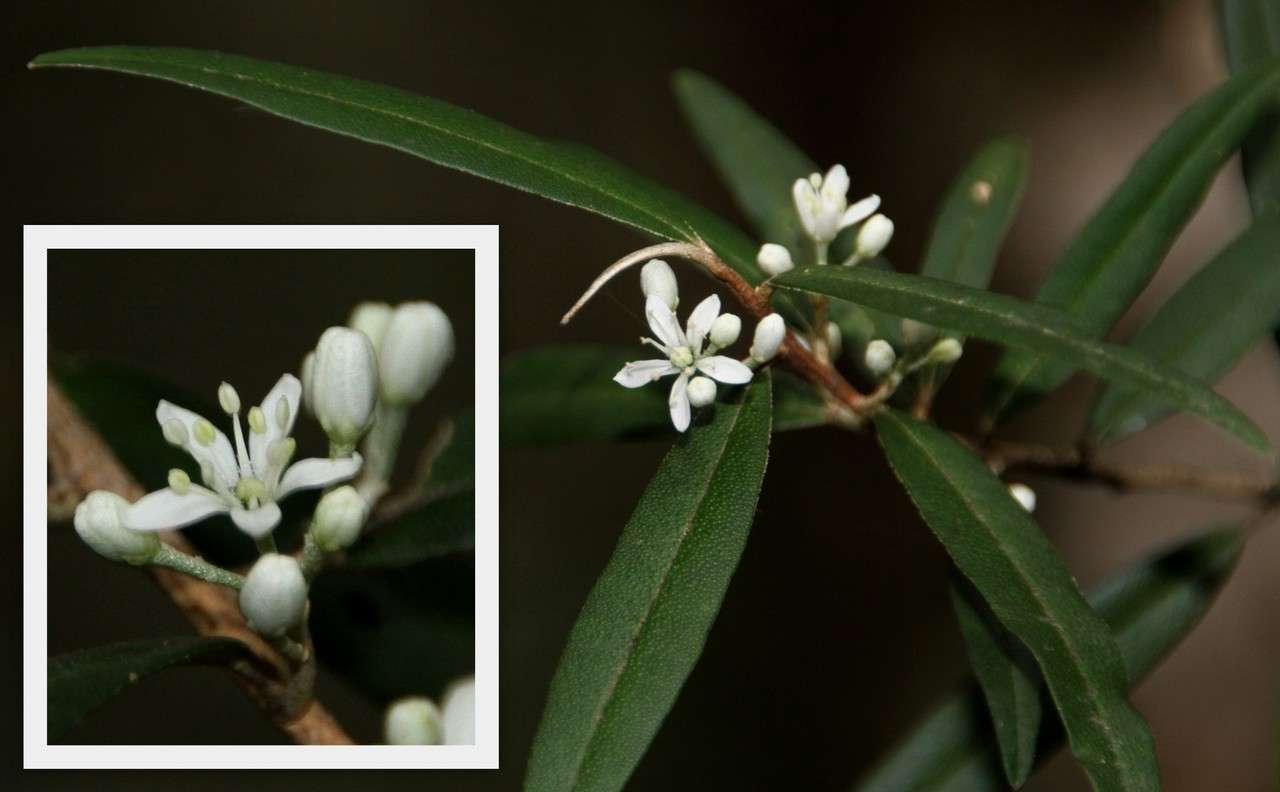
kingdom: Plantae
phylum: Tracheophyta
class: Magnoliopsida
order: Sapindales
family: Rutaceae
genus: Nematolepis
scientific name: Nematolepis squamea
